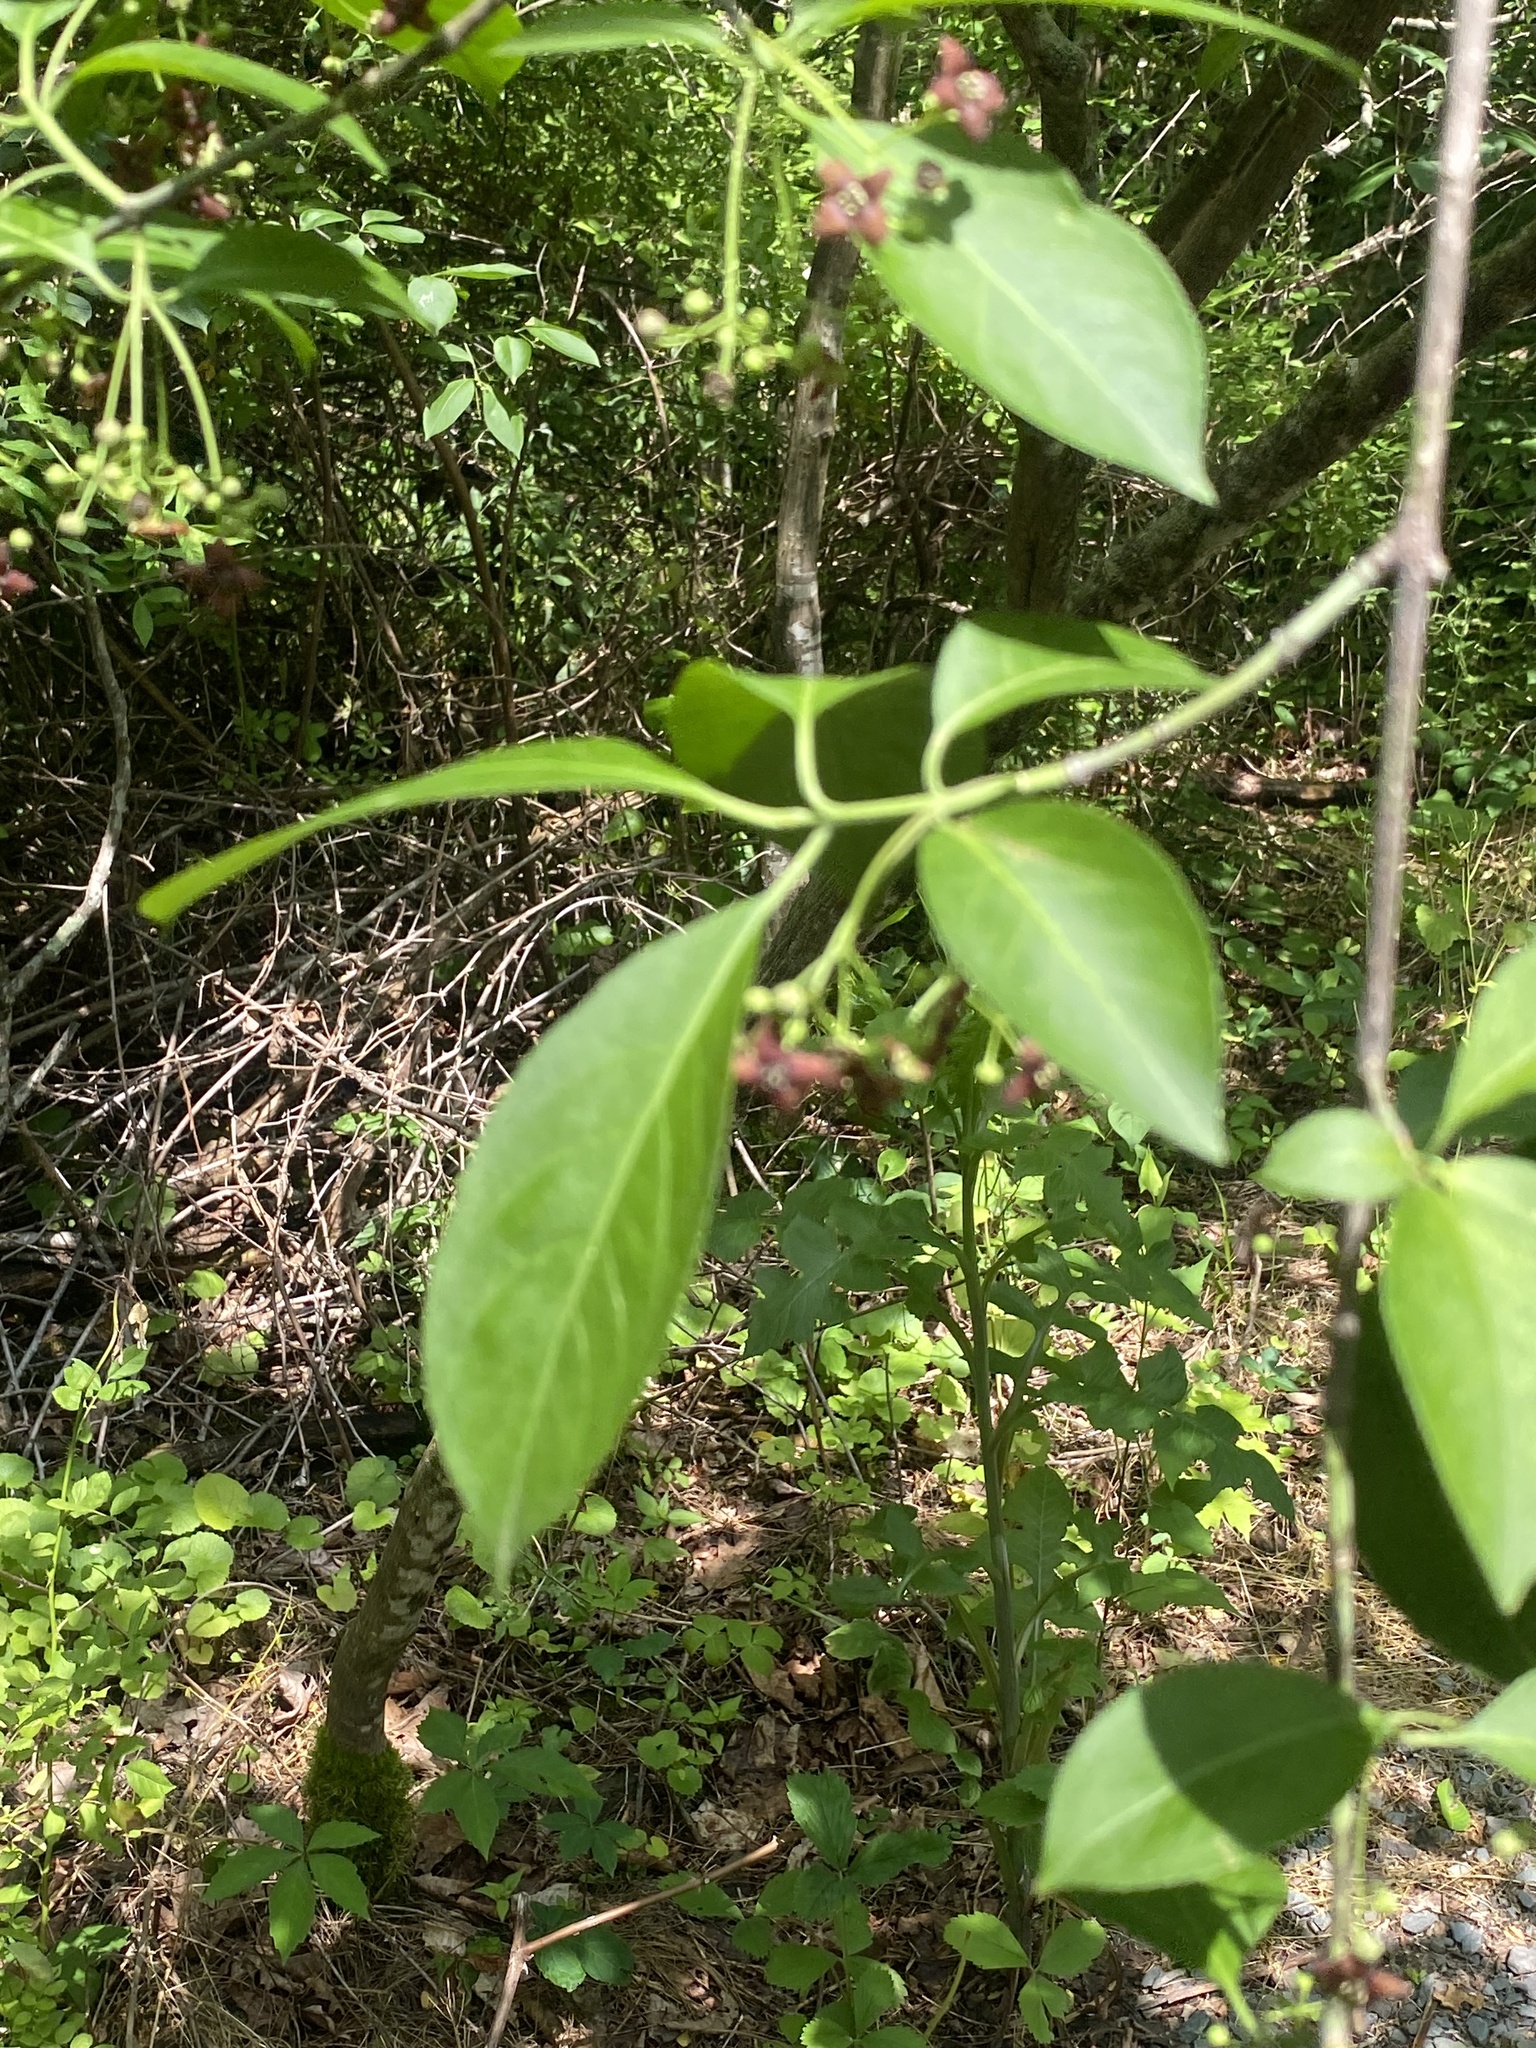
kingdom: Plantae
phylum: Tracheophyta
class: Magnoliopsida
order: Celastrales
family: Celastraceae
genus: Euonymus
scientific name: Euonymus atropurpureus
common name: Eastern wahoo
